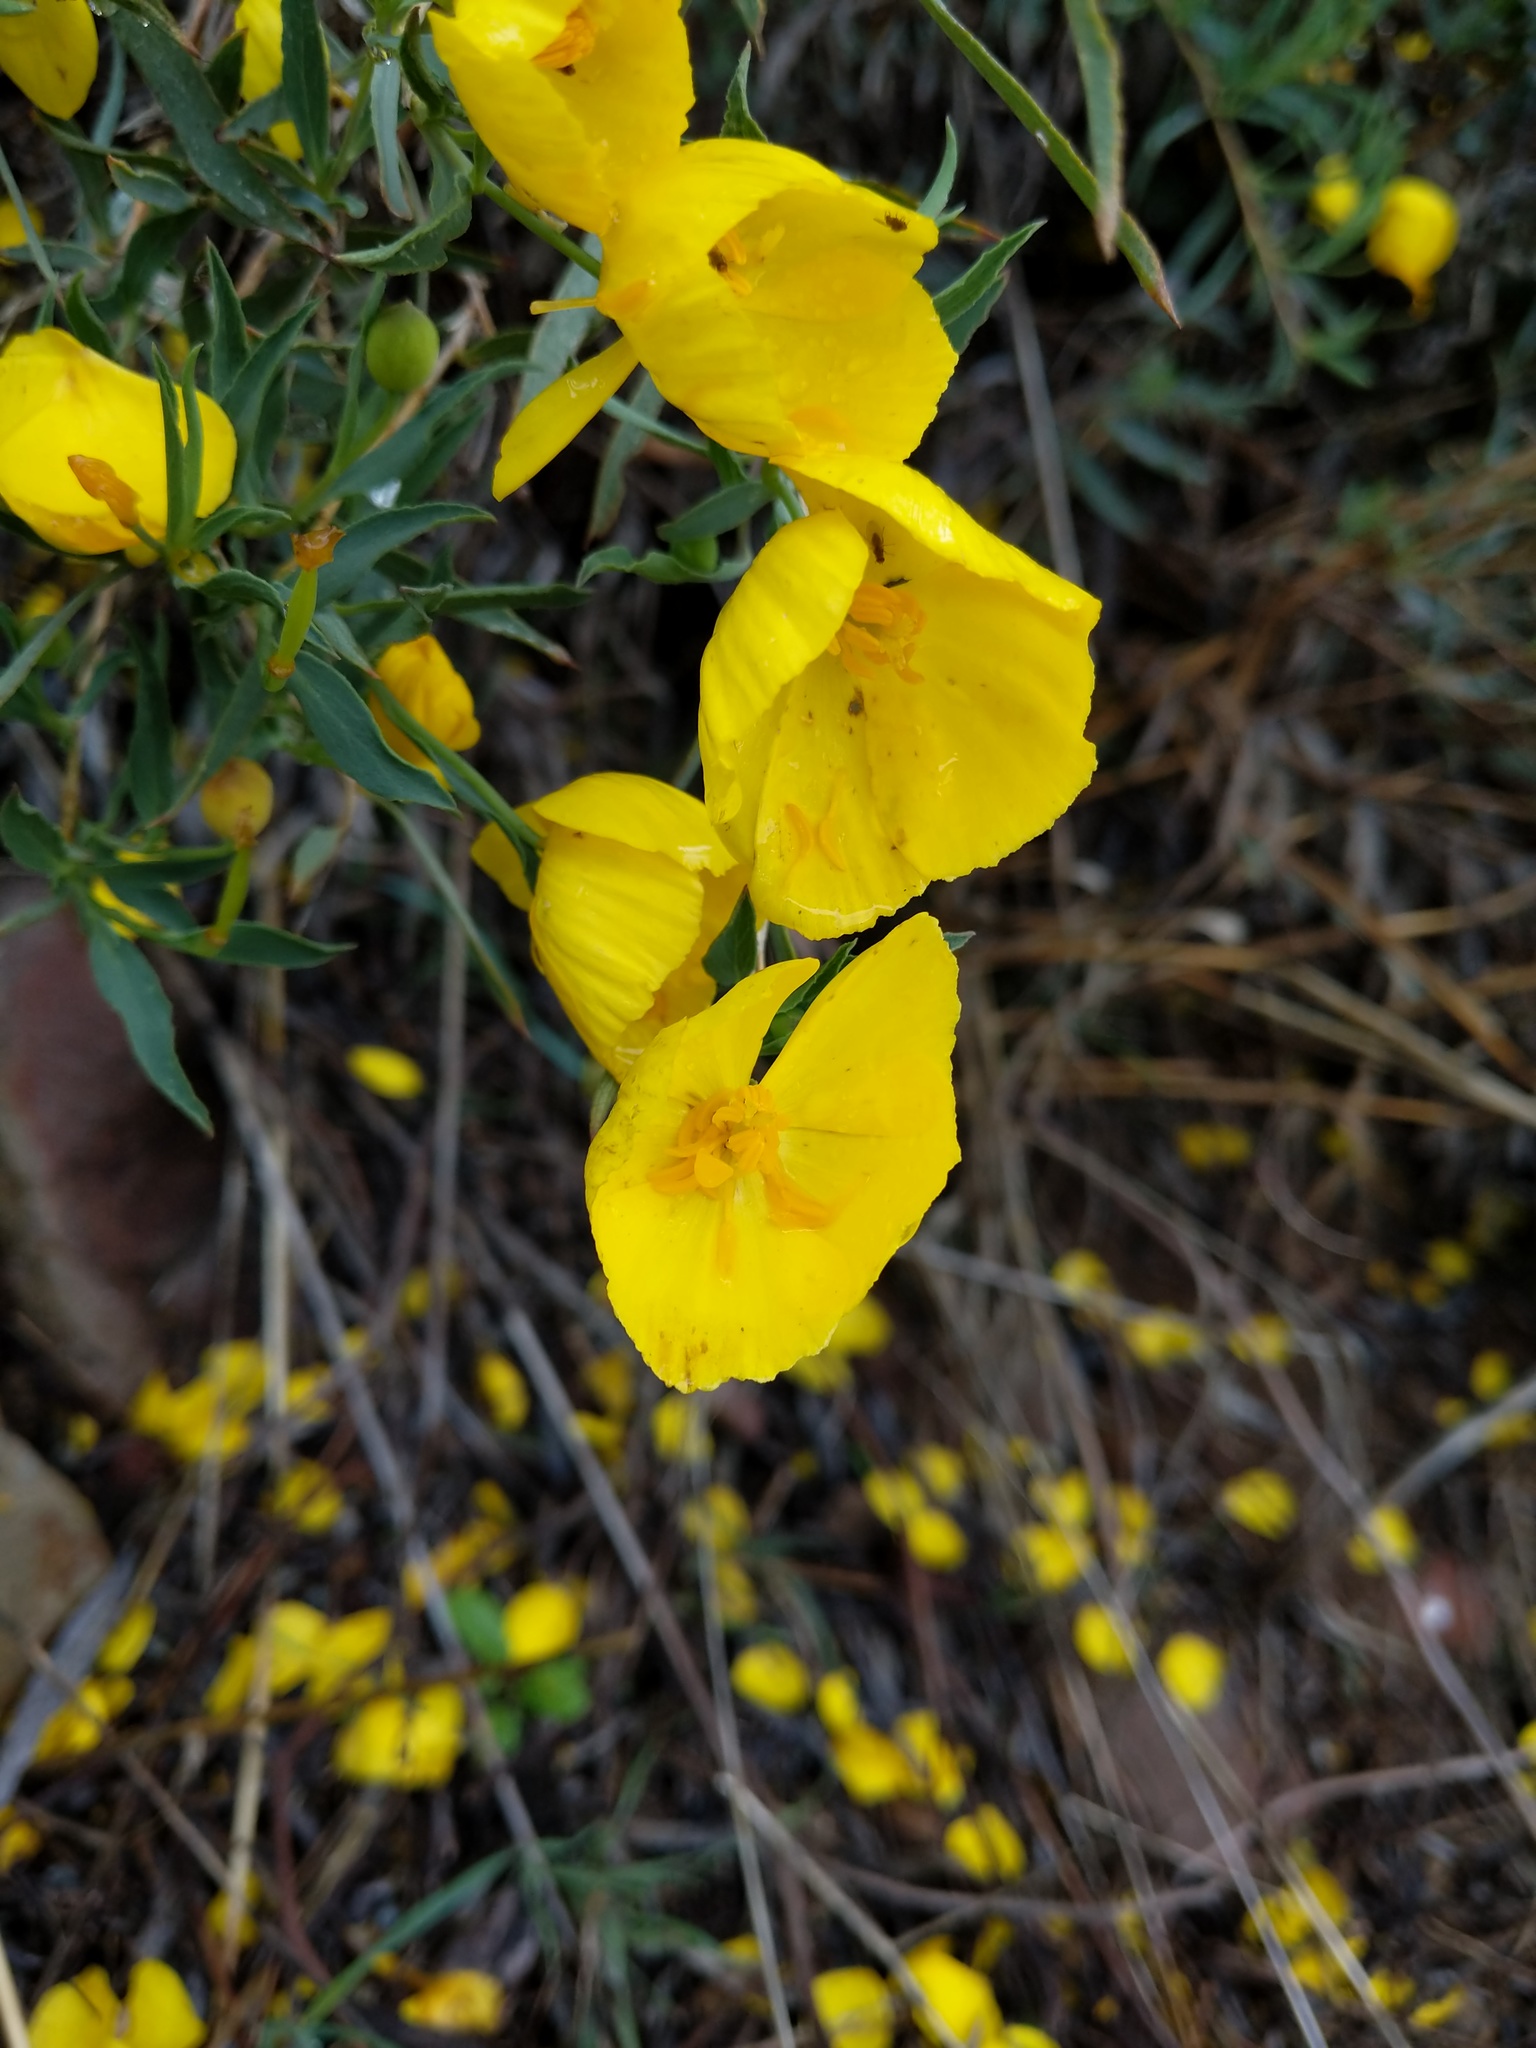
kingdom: Plantae
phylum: Tracheophyta
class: Magnoliopsida
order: Ranunculales
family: Papaveraceae
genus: Dendromecon
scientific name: Dendromecon rigida
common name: Tree poppy
